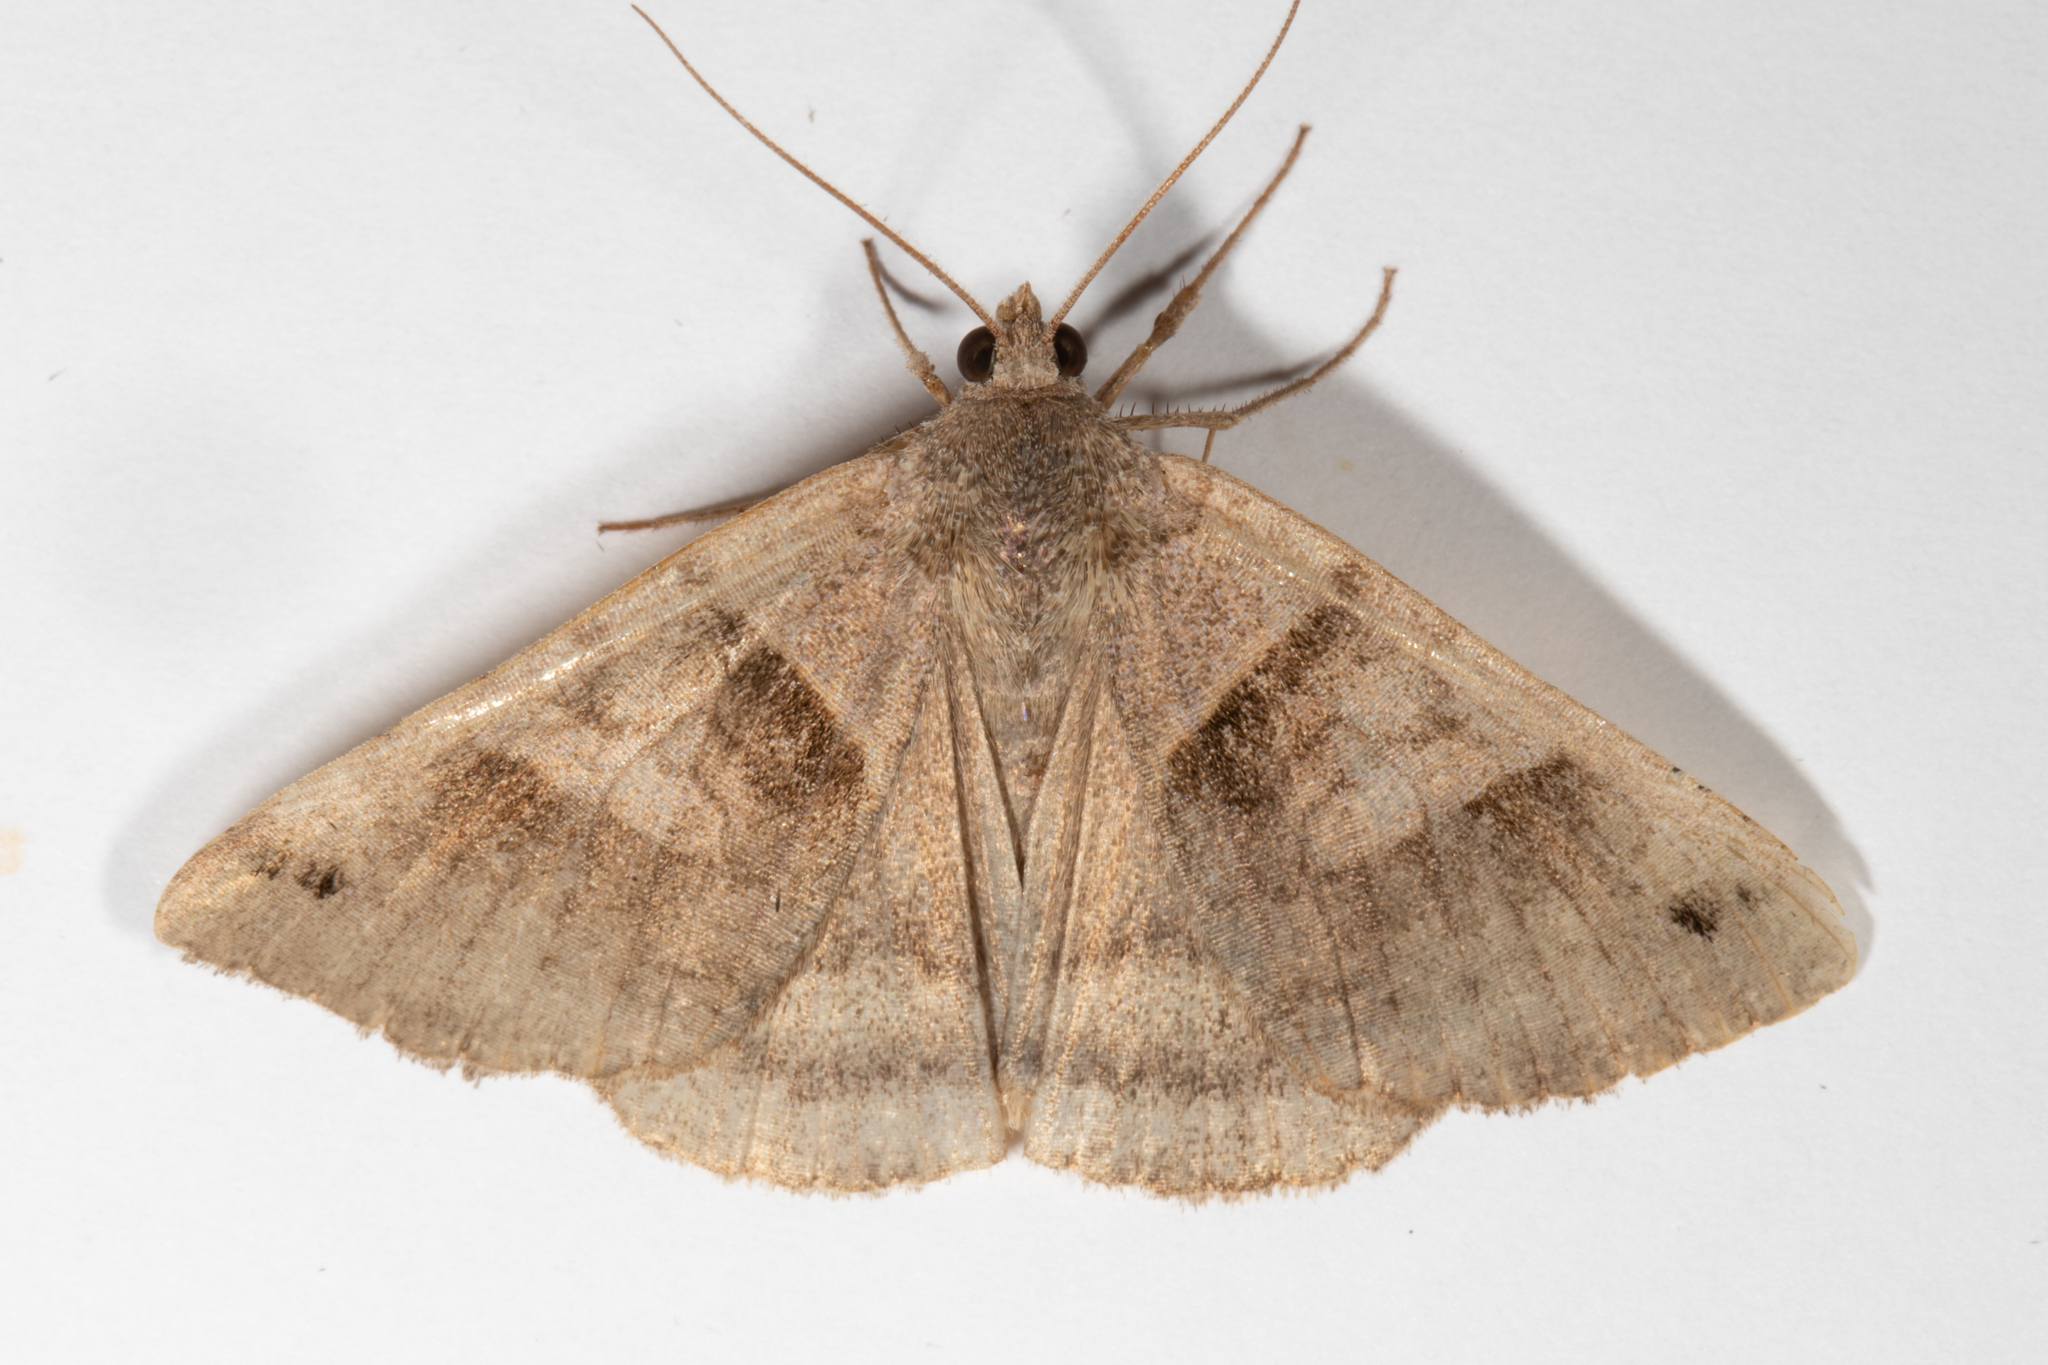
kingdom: Animalia
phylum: Arthropoda
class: Insecta
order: Lepidoptera
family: Erebidae
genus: Caenurgina
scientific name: Caenurgina crassiuscula
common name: Double-barred
